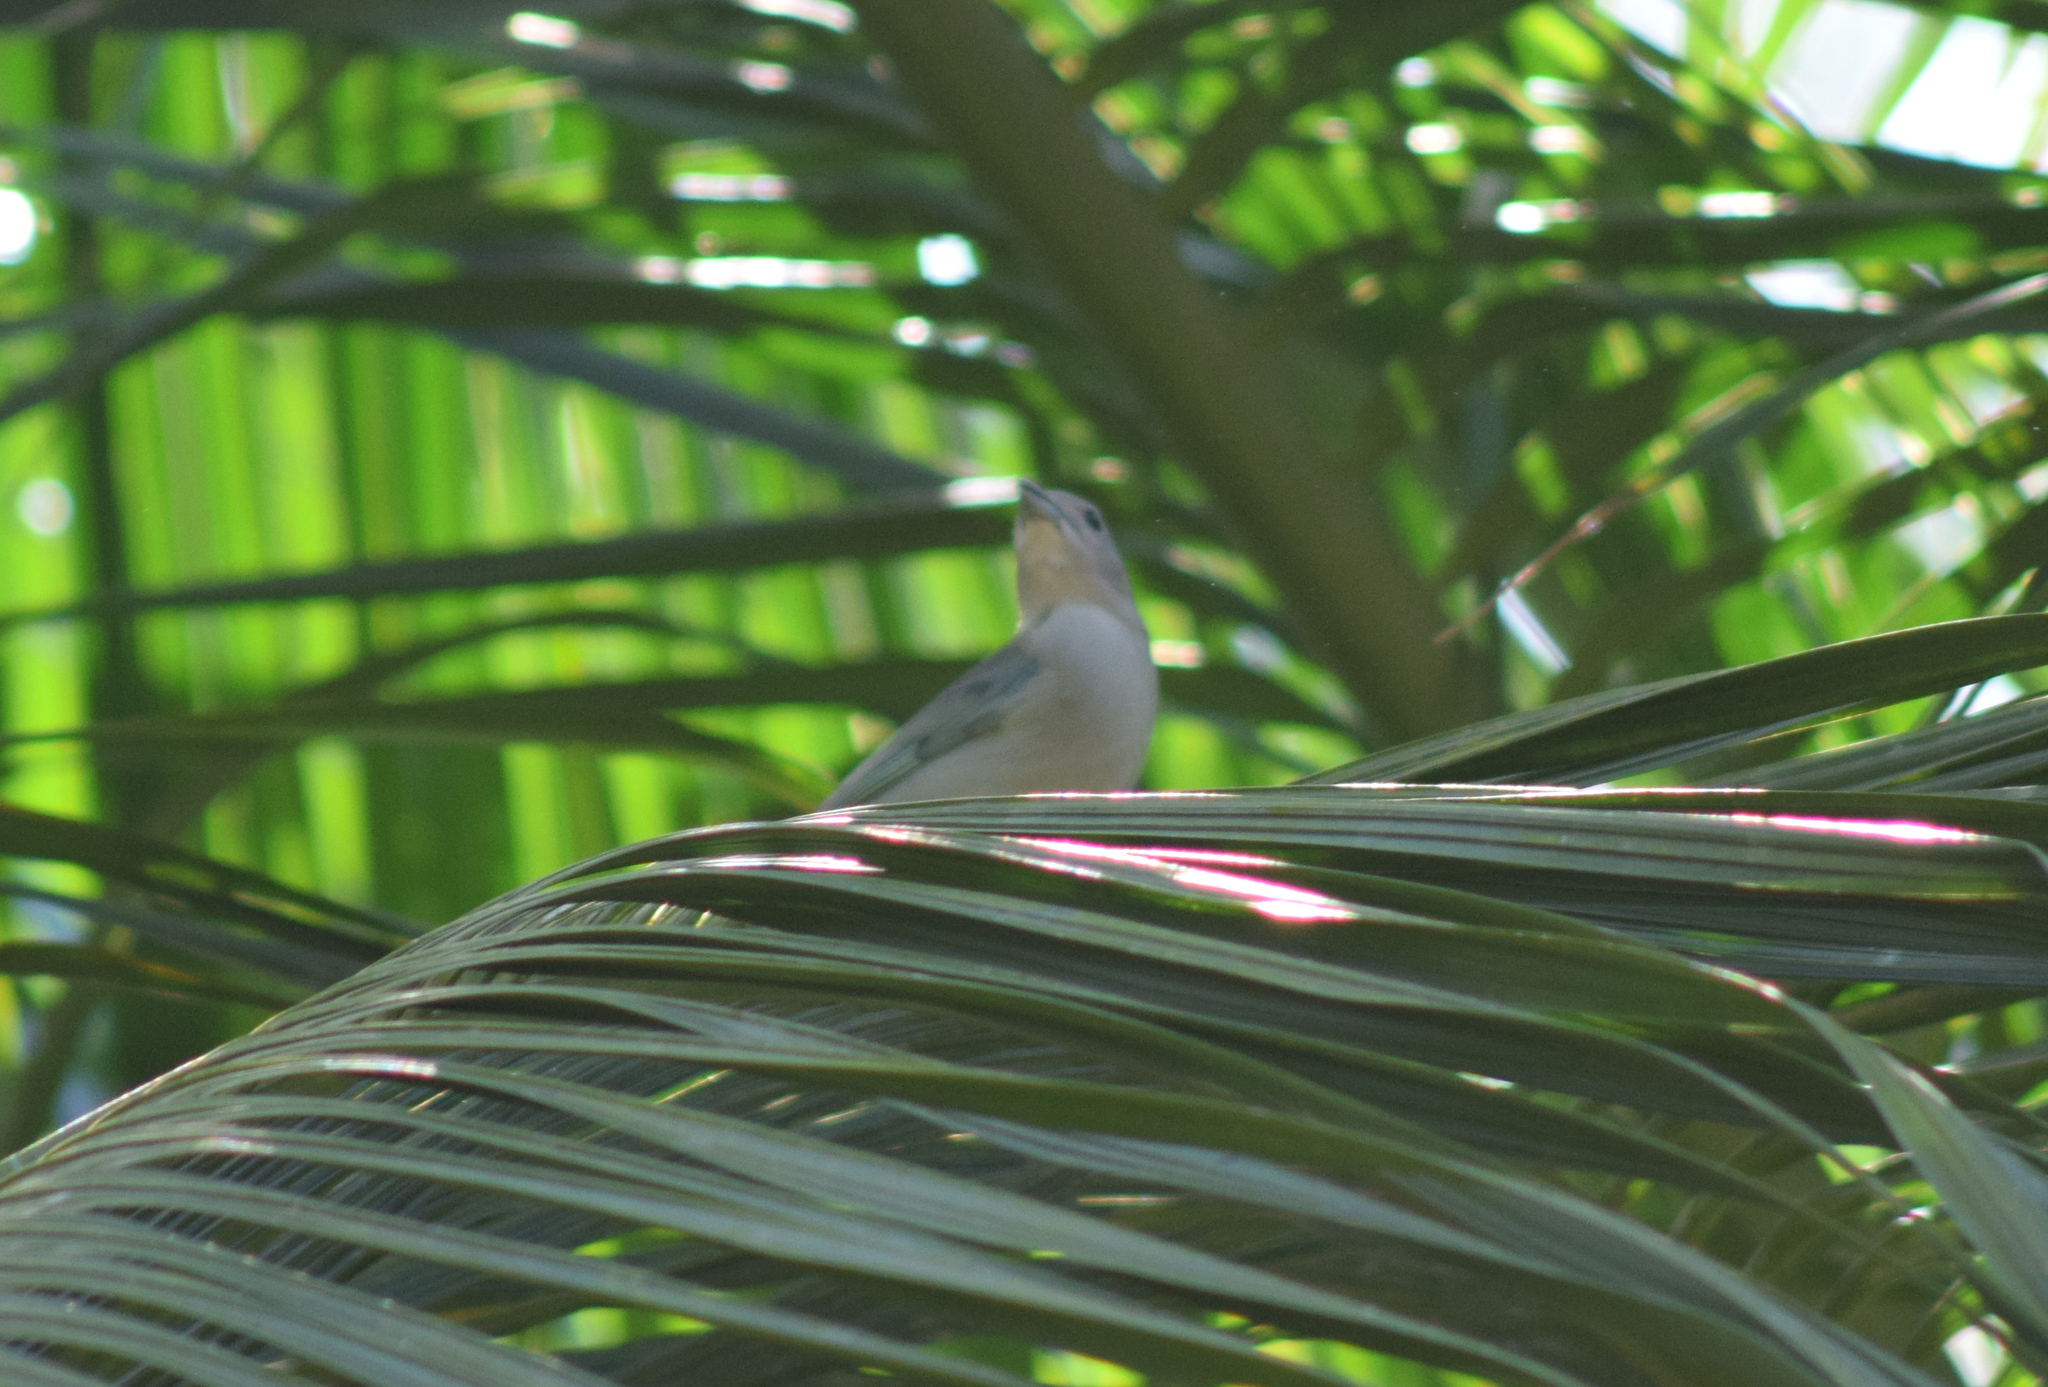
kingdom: Animalia
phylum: Chordata
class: Aves
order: Passeriformes
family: Thraupidae
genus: Thraupis
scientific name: Thraupis sayaca
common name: Sayaca tanager
